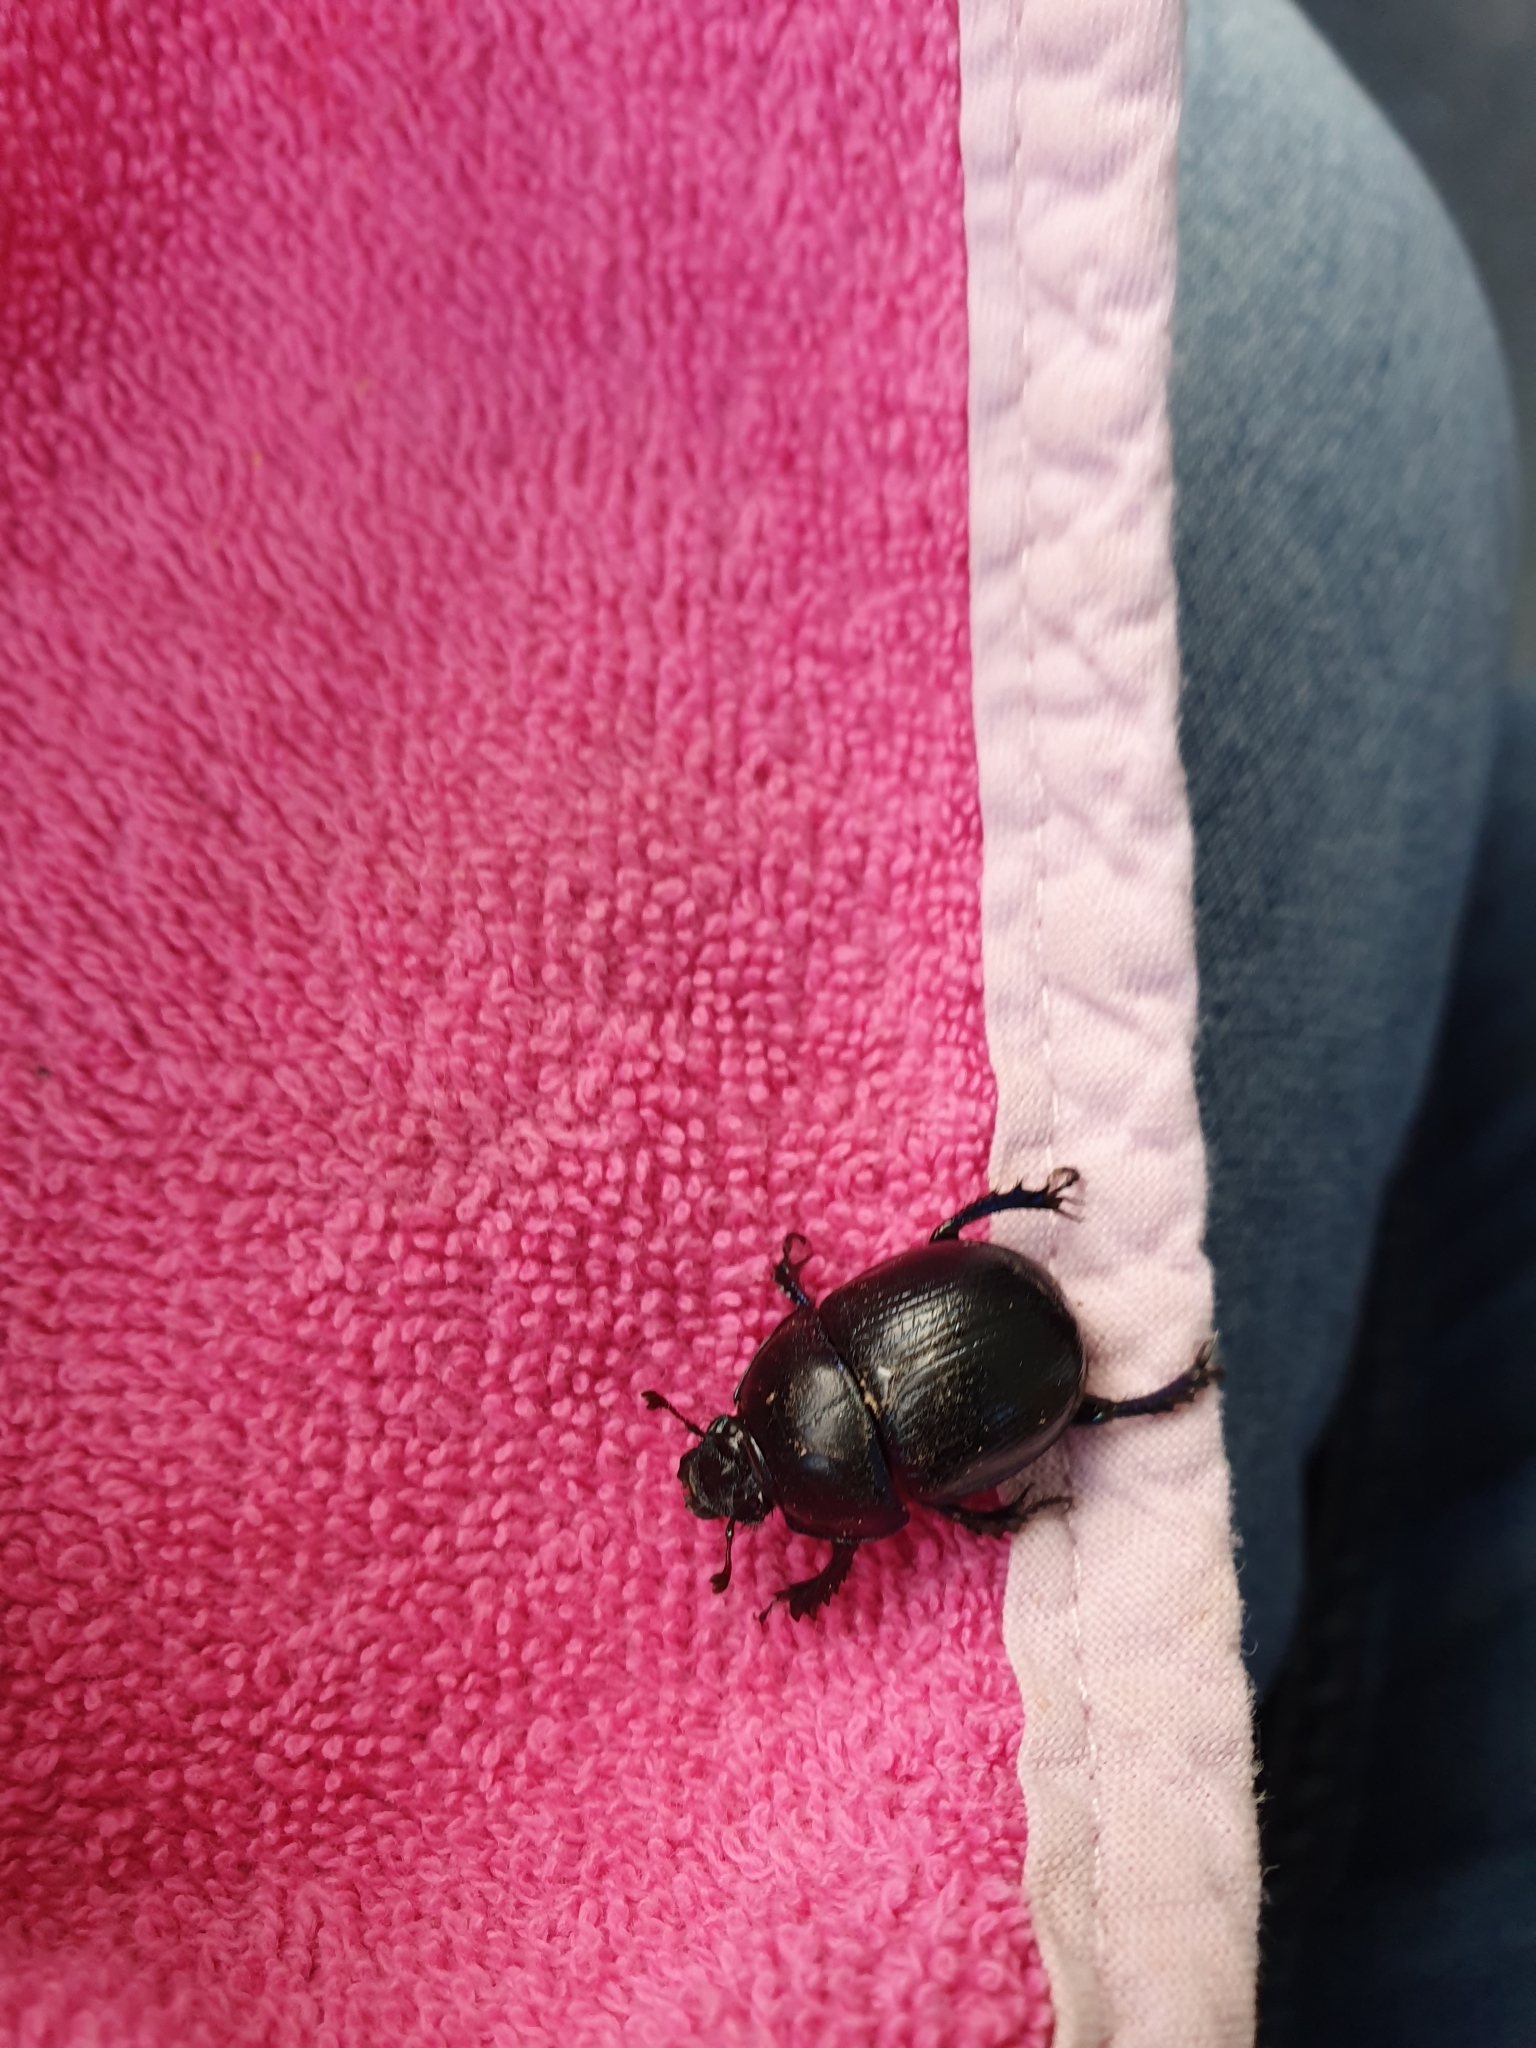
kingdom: Animalia
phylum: Arthropoda
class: Insecta
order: Coleoptera
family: Geotrupidae
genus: Anoplotrupes
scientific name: Anoplotrupes stercorosus
